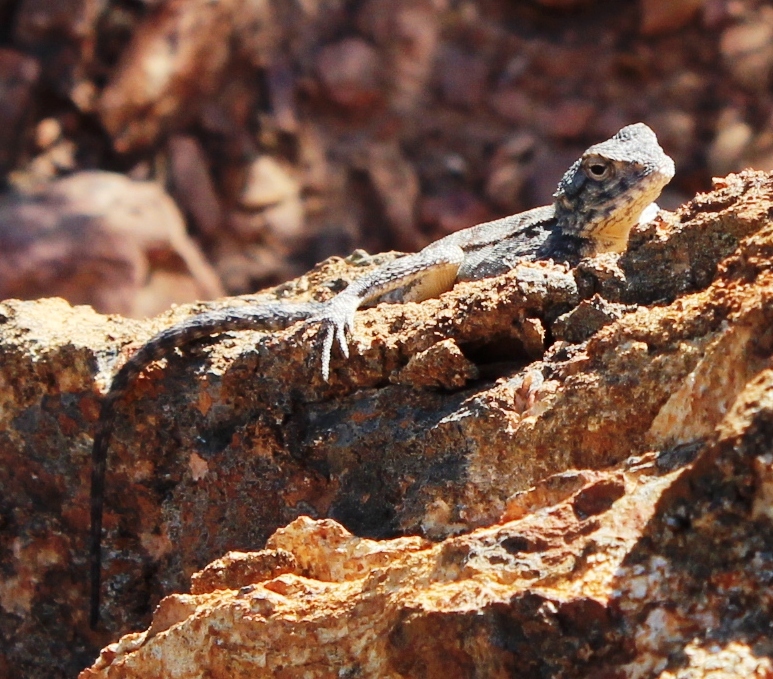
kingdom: Animalia
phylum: Chordata
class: Squamata
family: Agamidae
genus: Agama
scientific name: Agama atra
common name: Southern african rock agama
